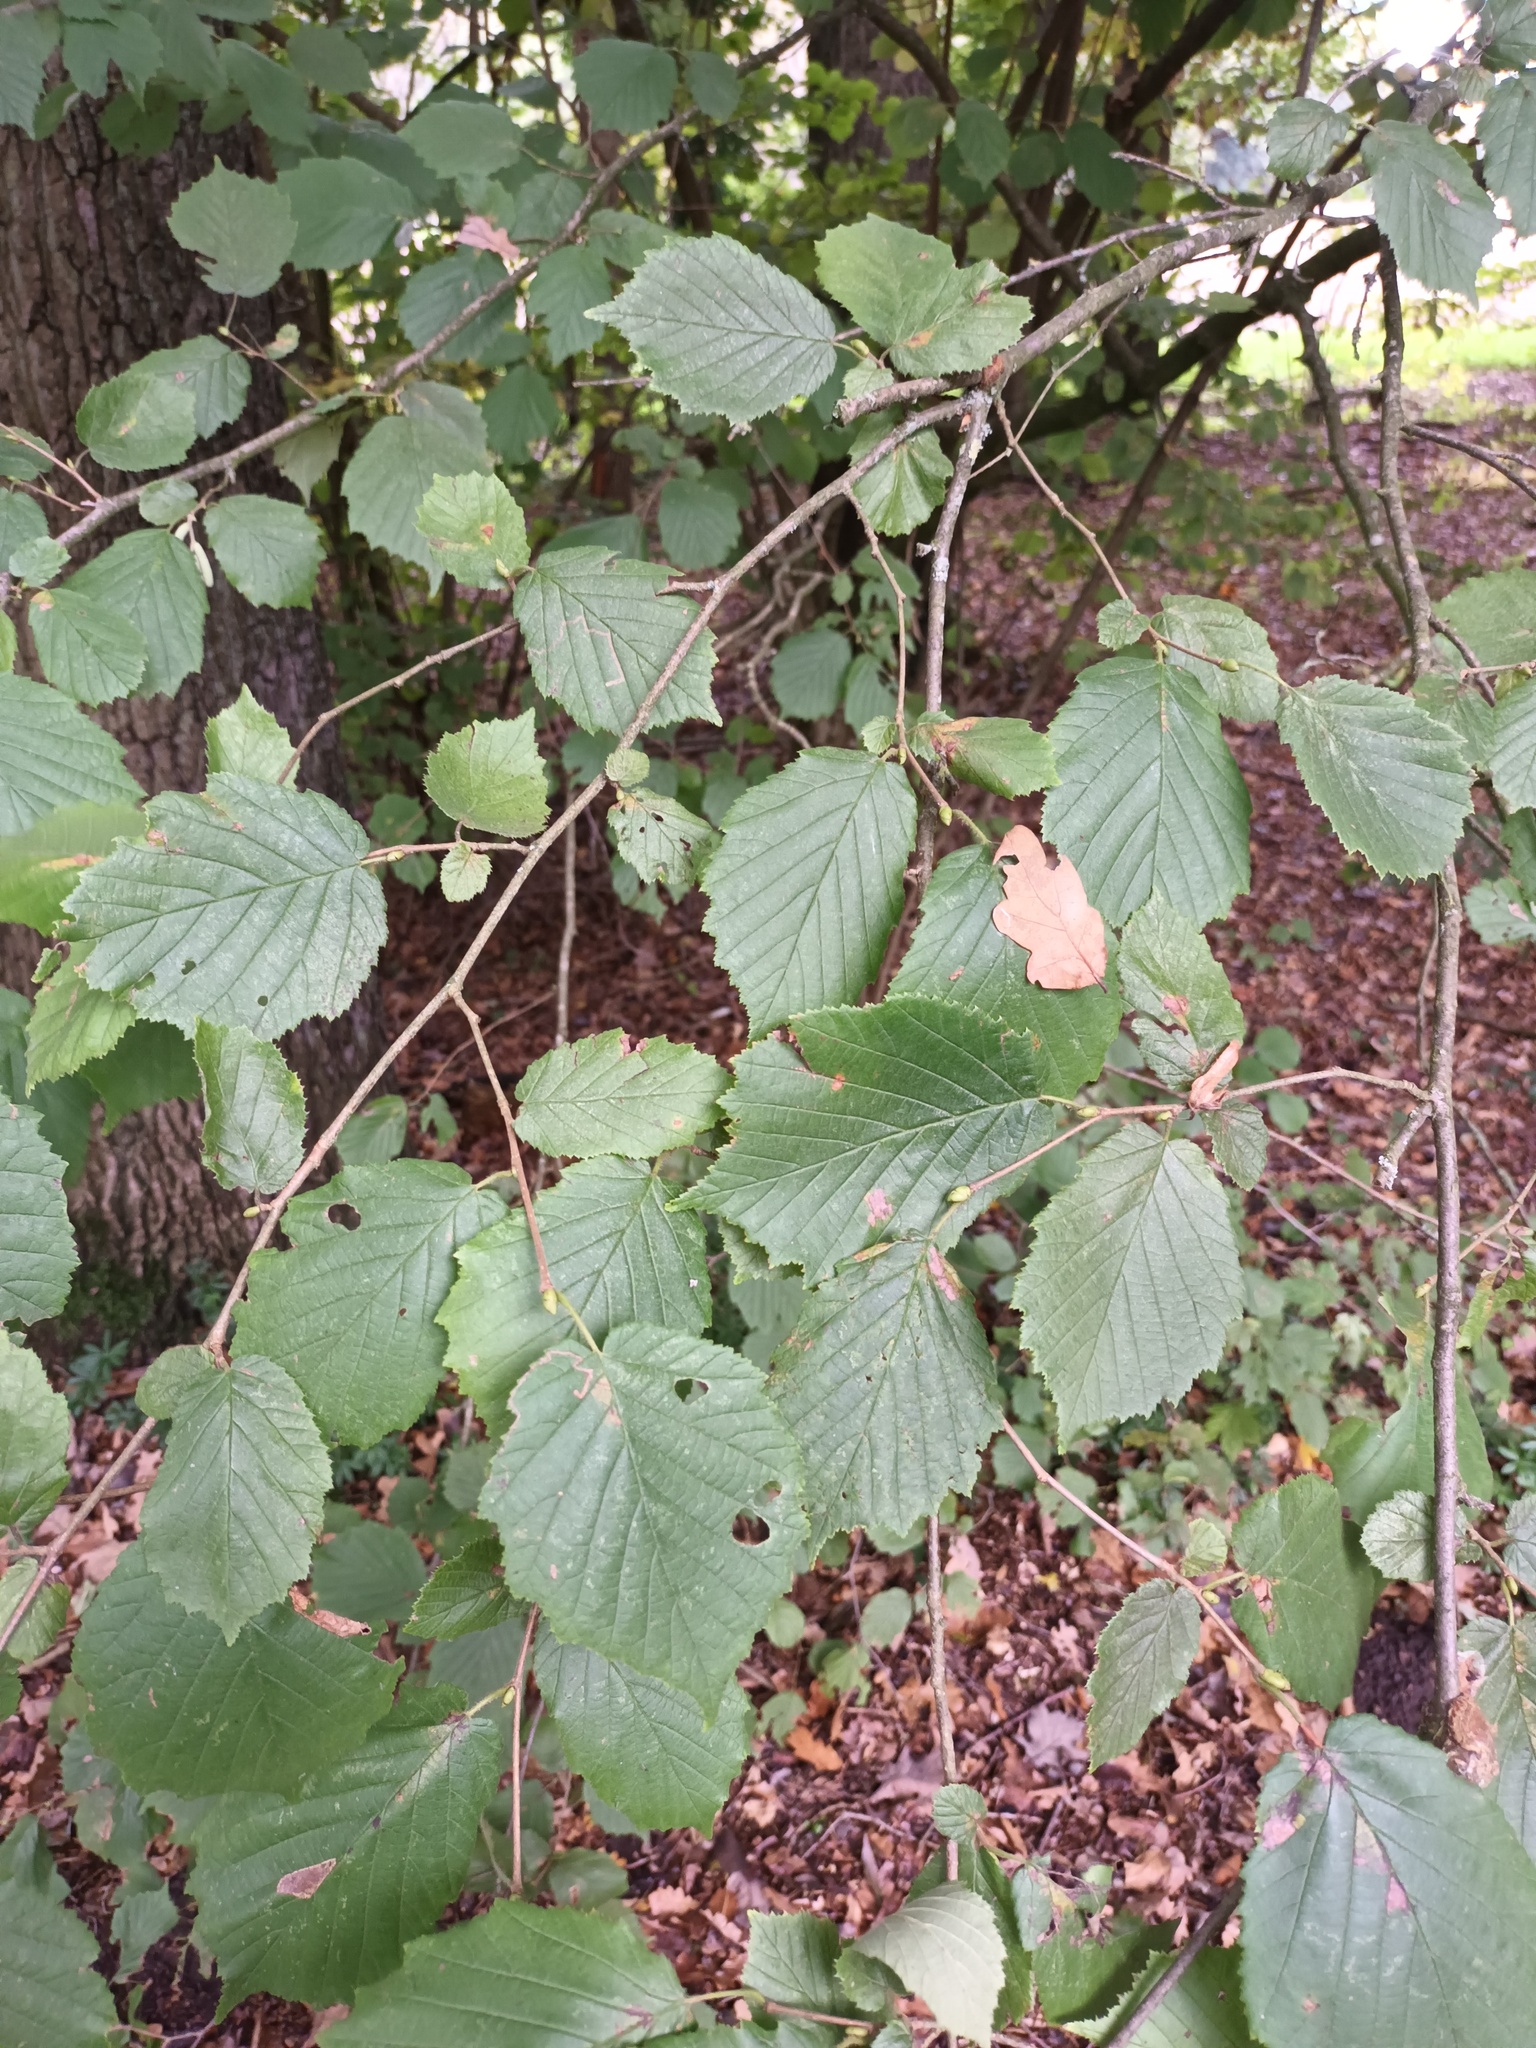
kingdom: Plantae
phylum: Tracheophyta
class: Magnoliopsida
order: Fagales
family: Betulaceae
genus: Corylus
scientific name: Corylus avellana
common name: European hazel
